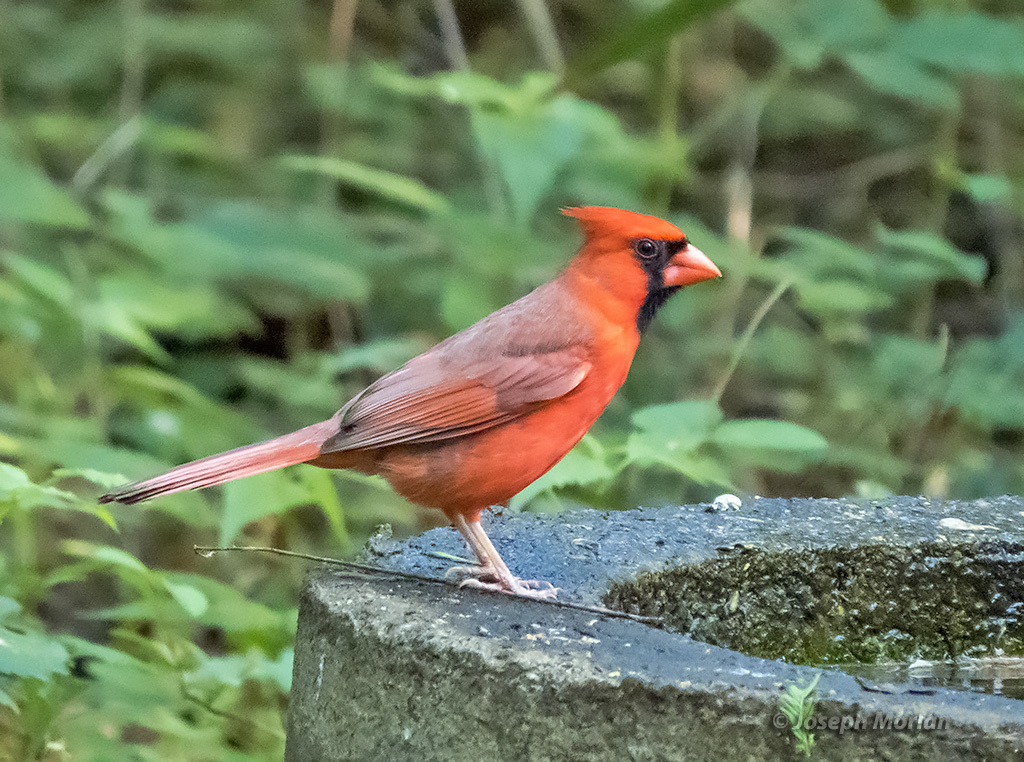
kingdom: Animalia
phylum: Chordata
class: Aves
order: Passeriformes
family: Cardinalidae
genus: Cardinalis
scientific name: Cardinalis cardinalis
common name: Northern cardinal
